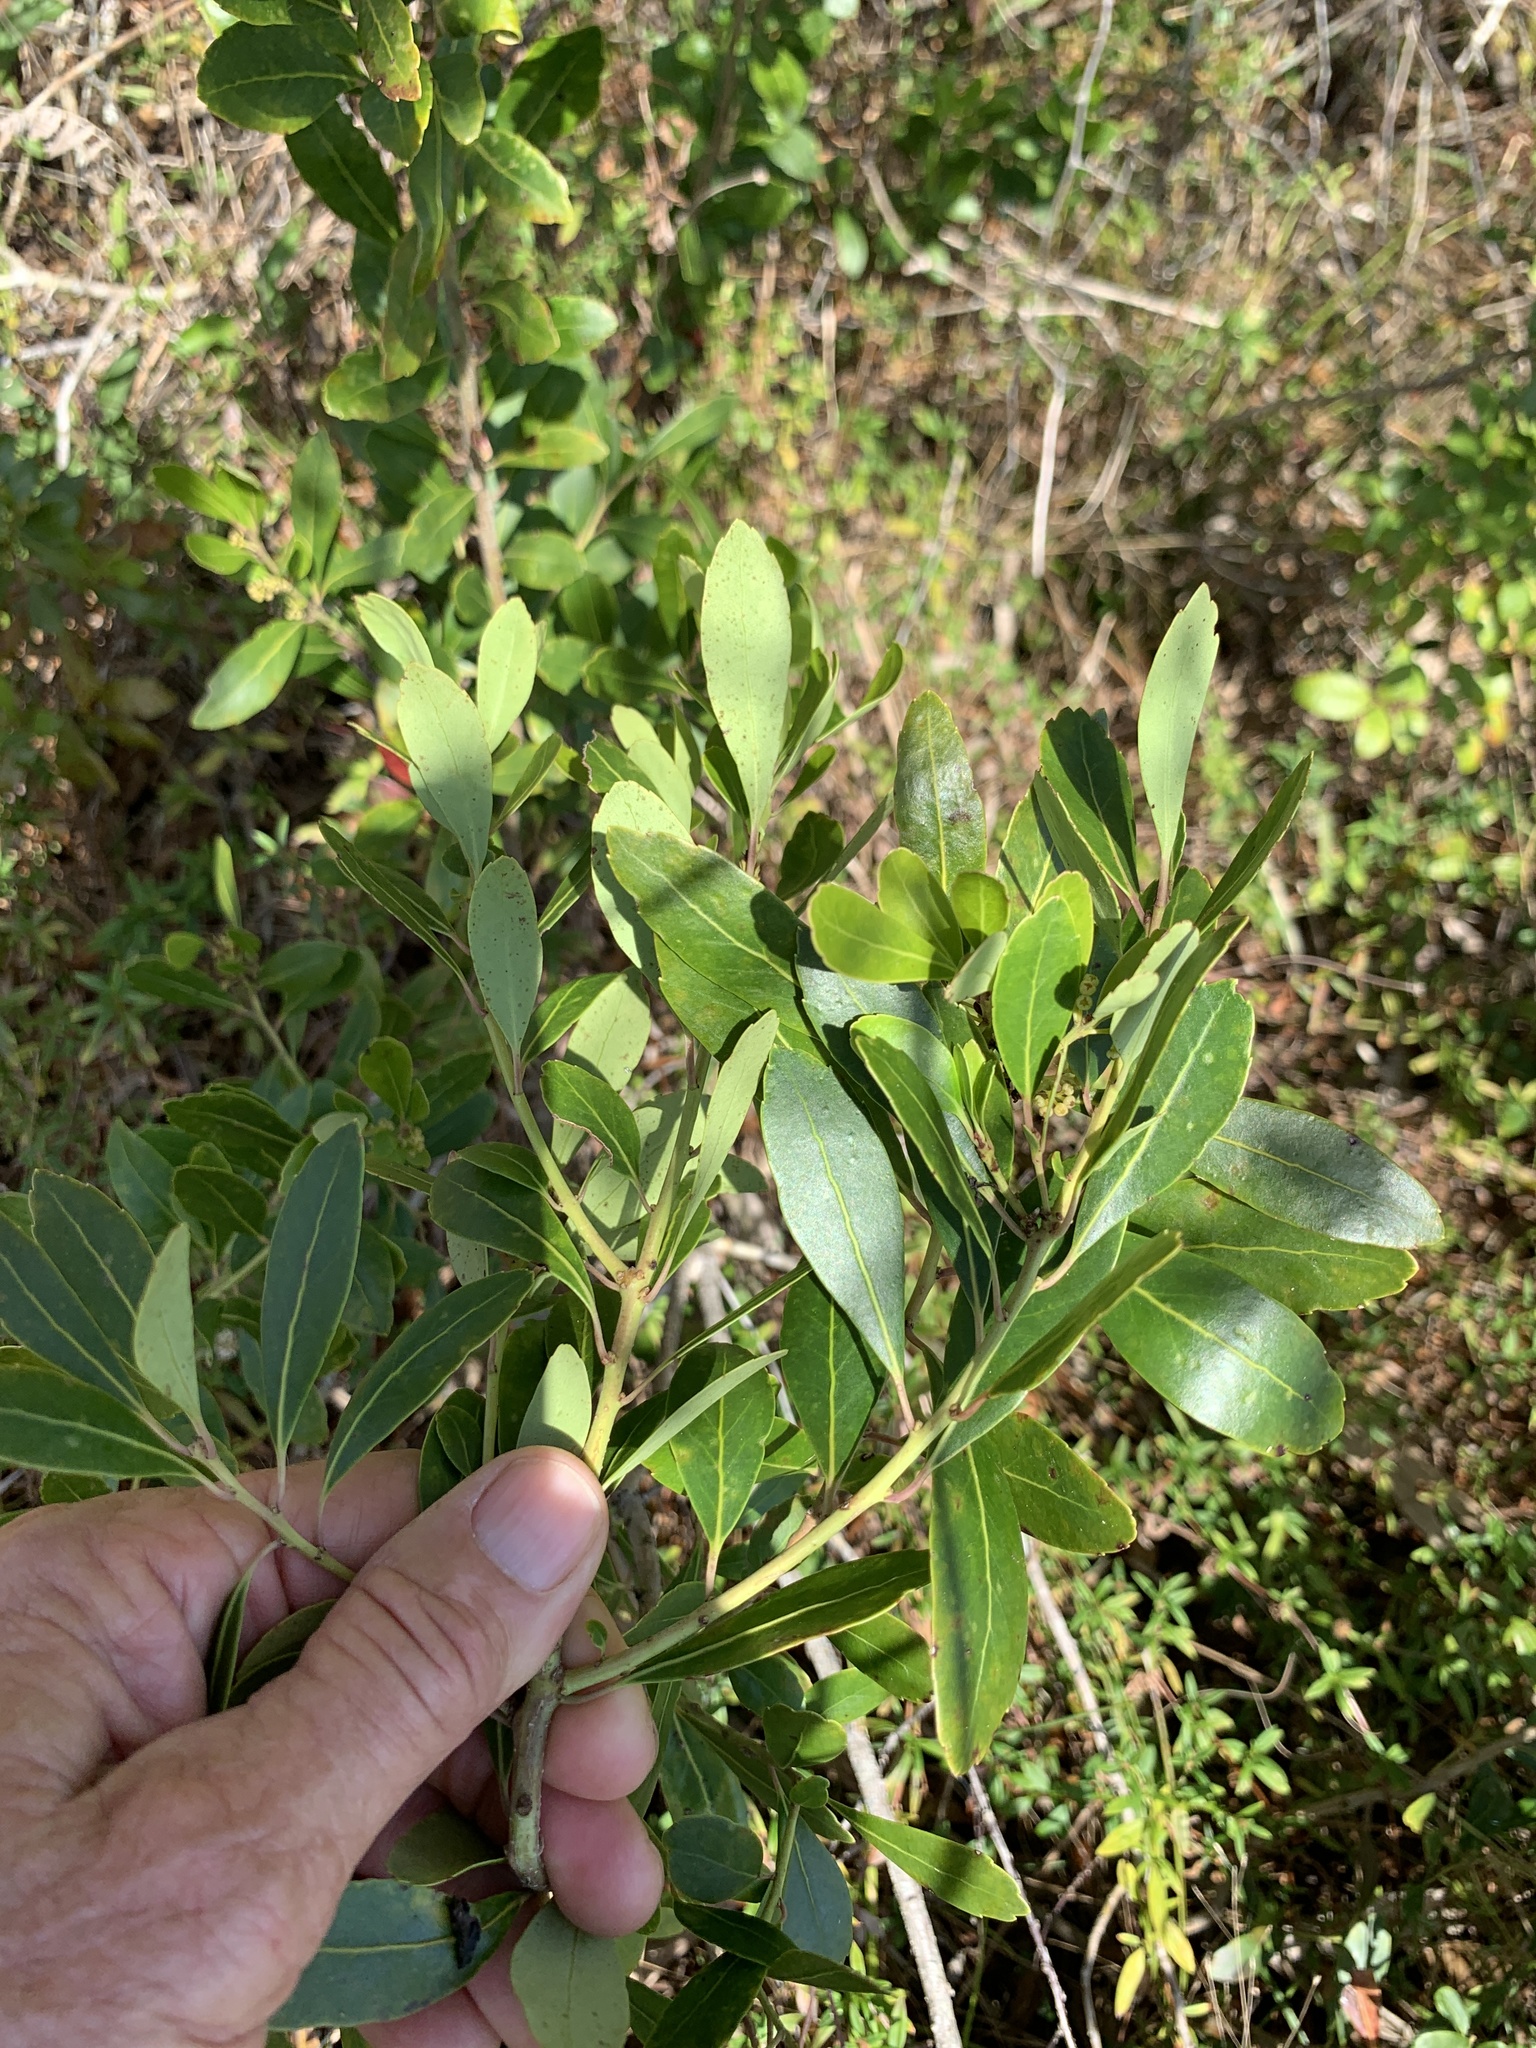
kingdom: Plantae
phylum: Tracheophyta
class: Magnoliopsida
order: Aquifoliales
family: Aquifoliaceae
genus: Ilex
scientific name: Ilex glabra
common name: Bitter gallberry
